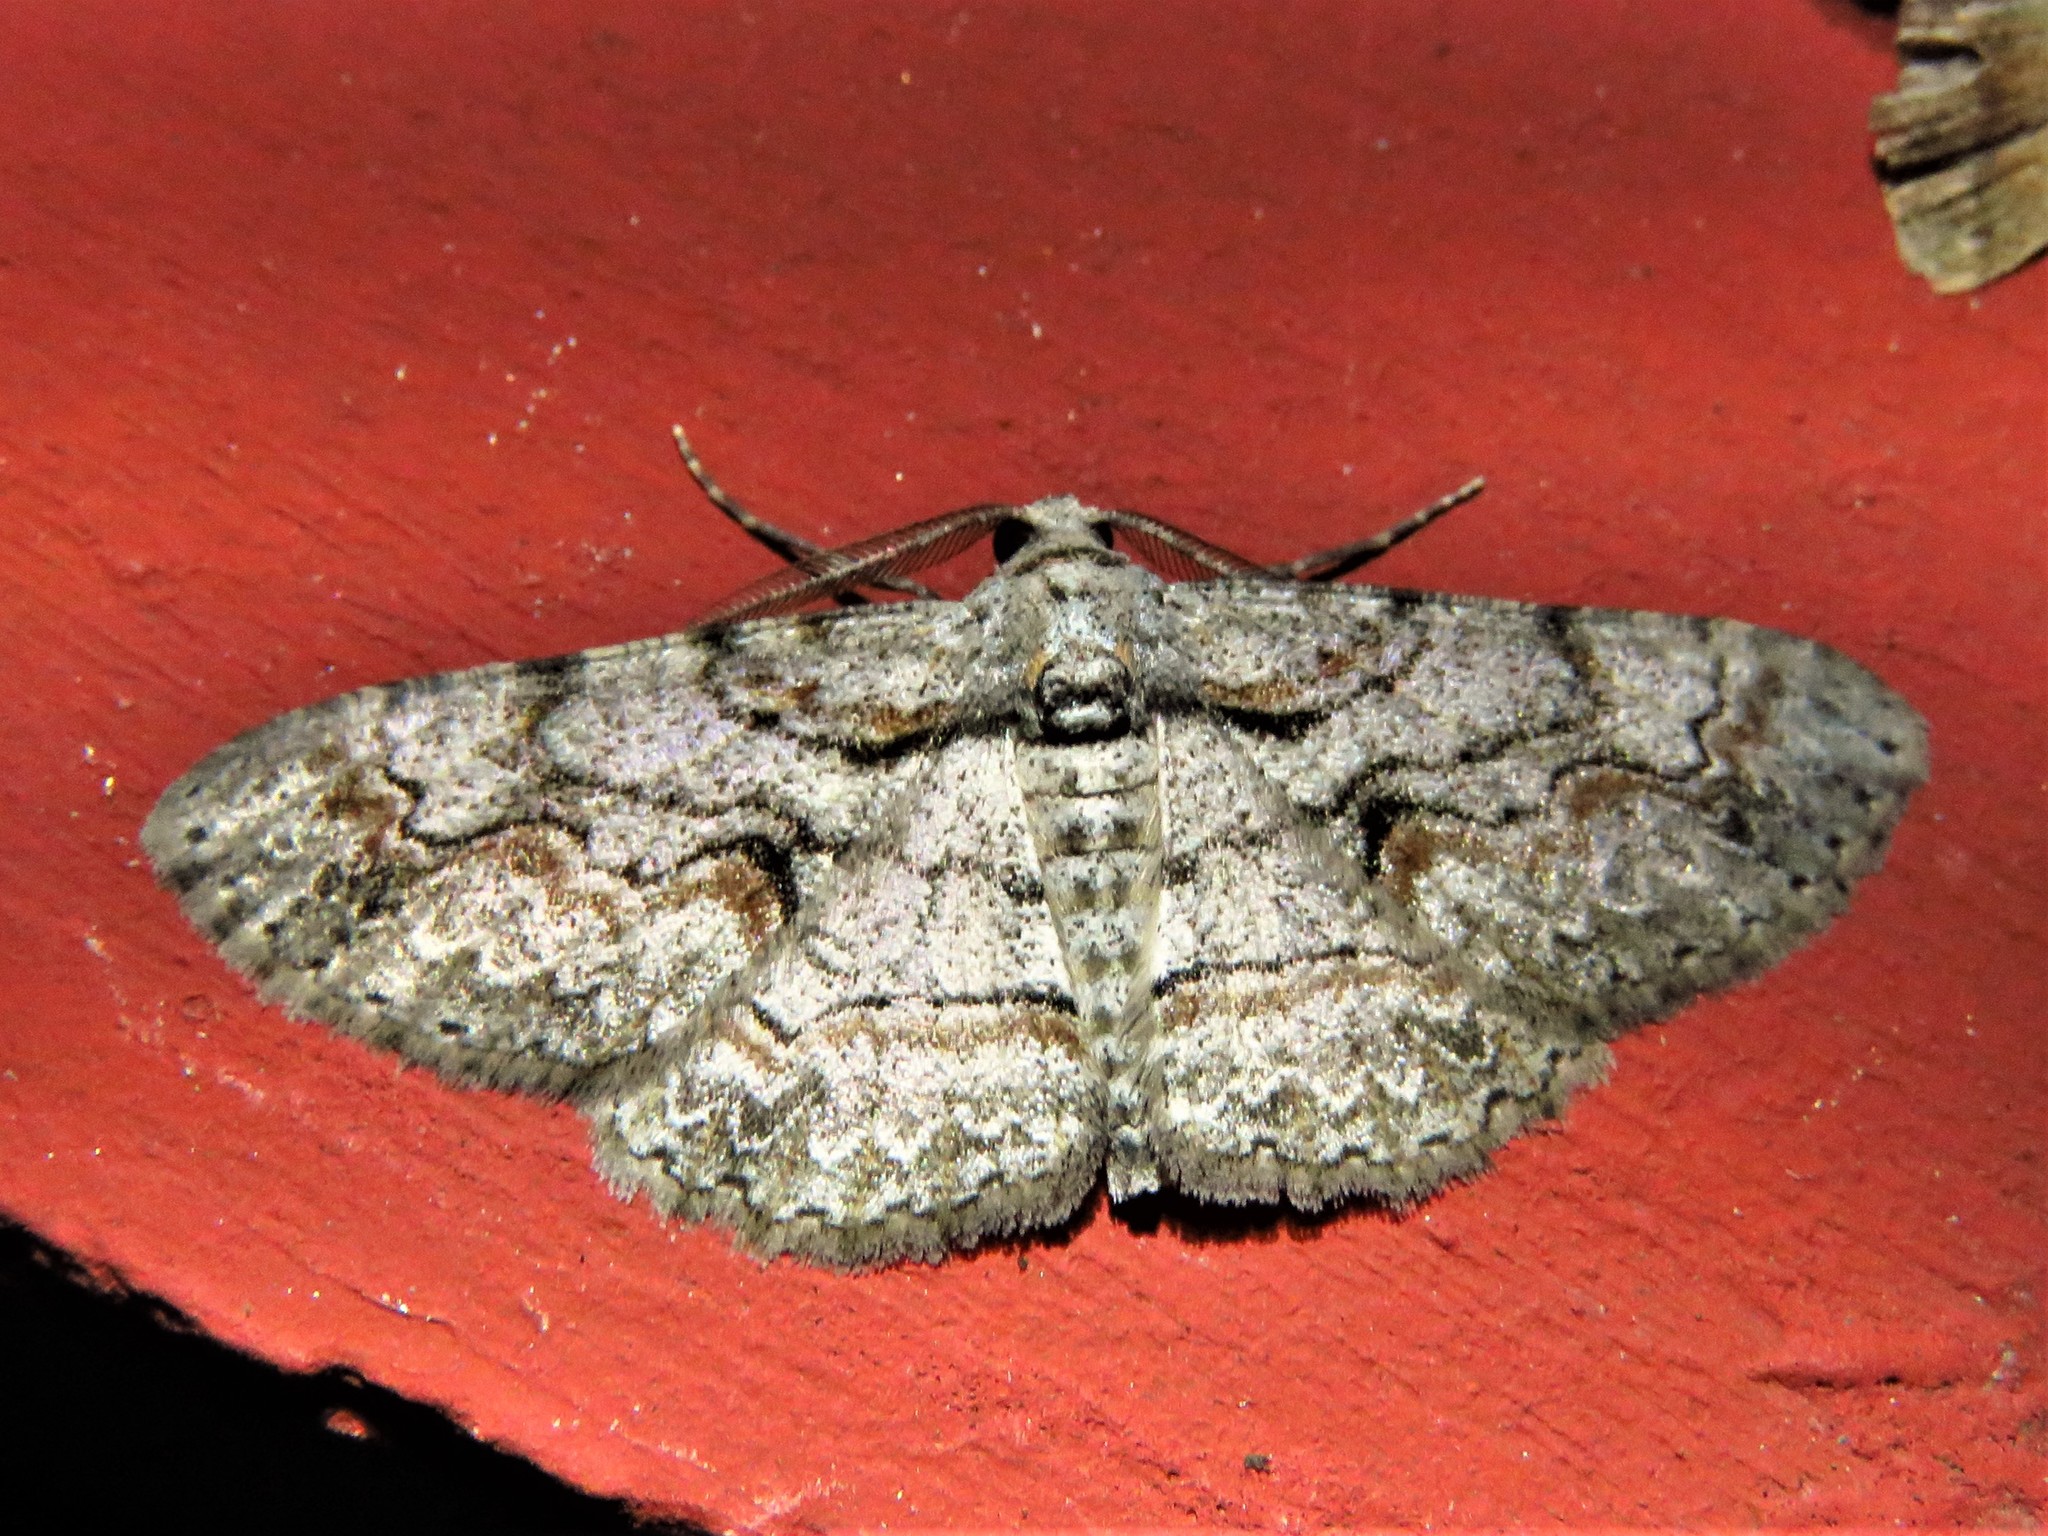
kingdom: Animalia
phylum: Arthropoda
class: Insecta
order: Lepidoptera
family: Geometridae
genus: Iridopsis
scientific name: Iridopsis defectaria
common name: Brown-shaded gray
